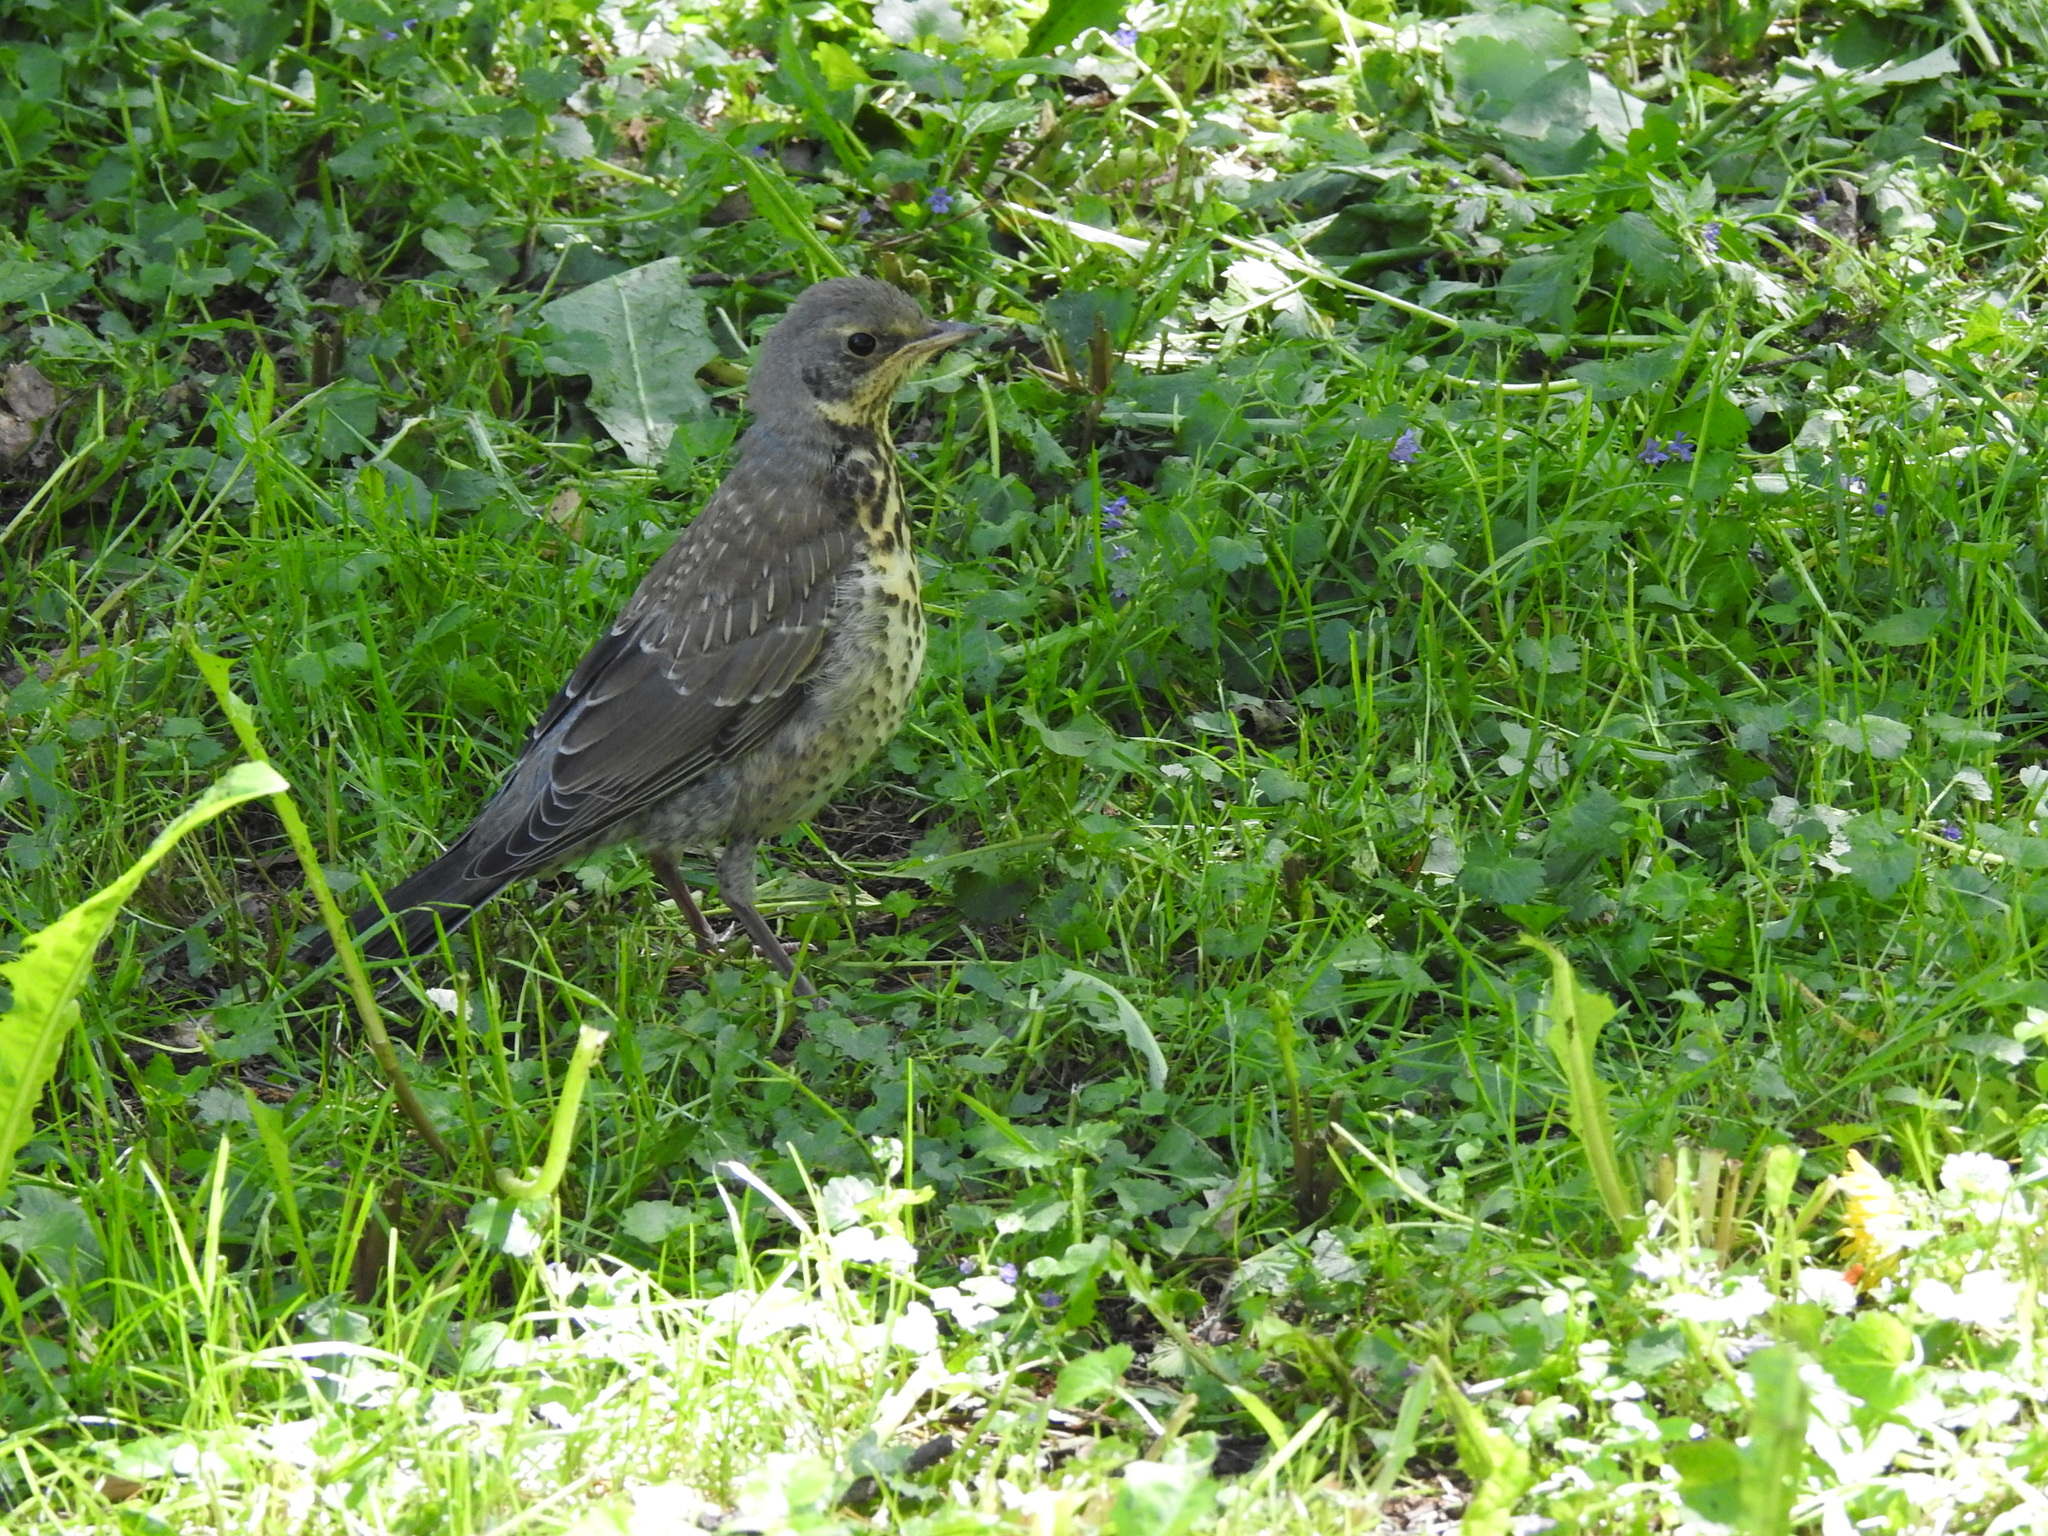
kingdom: Animalia
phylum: Chordata
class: Aves
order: Passeriformes
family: Turdidae
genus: Turdus
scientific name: Turdus pilaris
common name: Fieldfare
